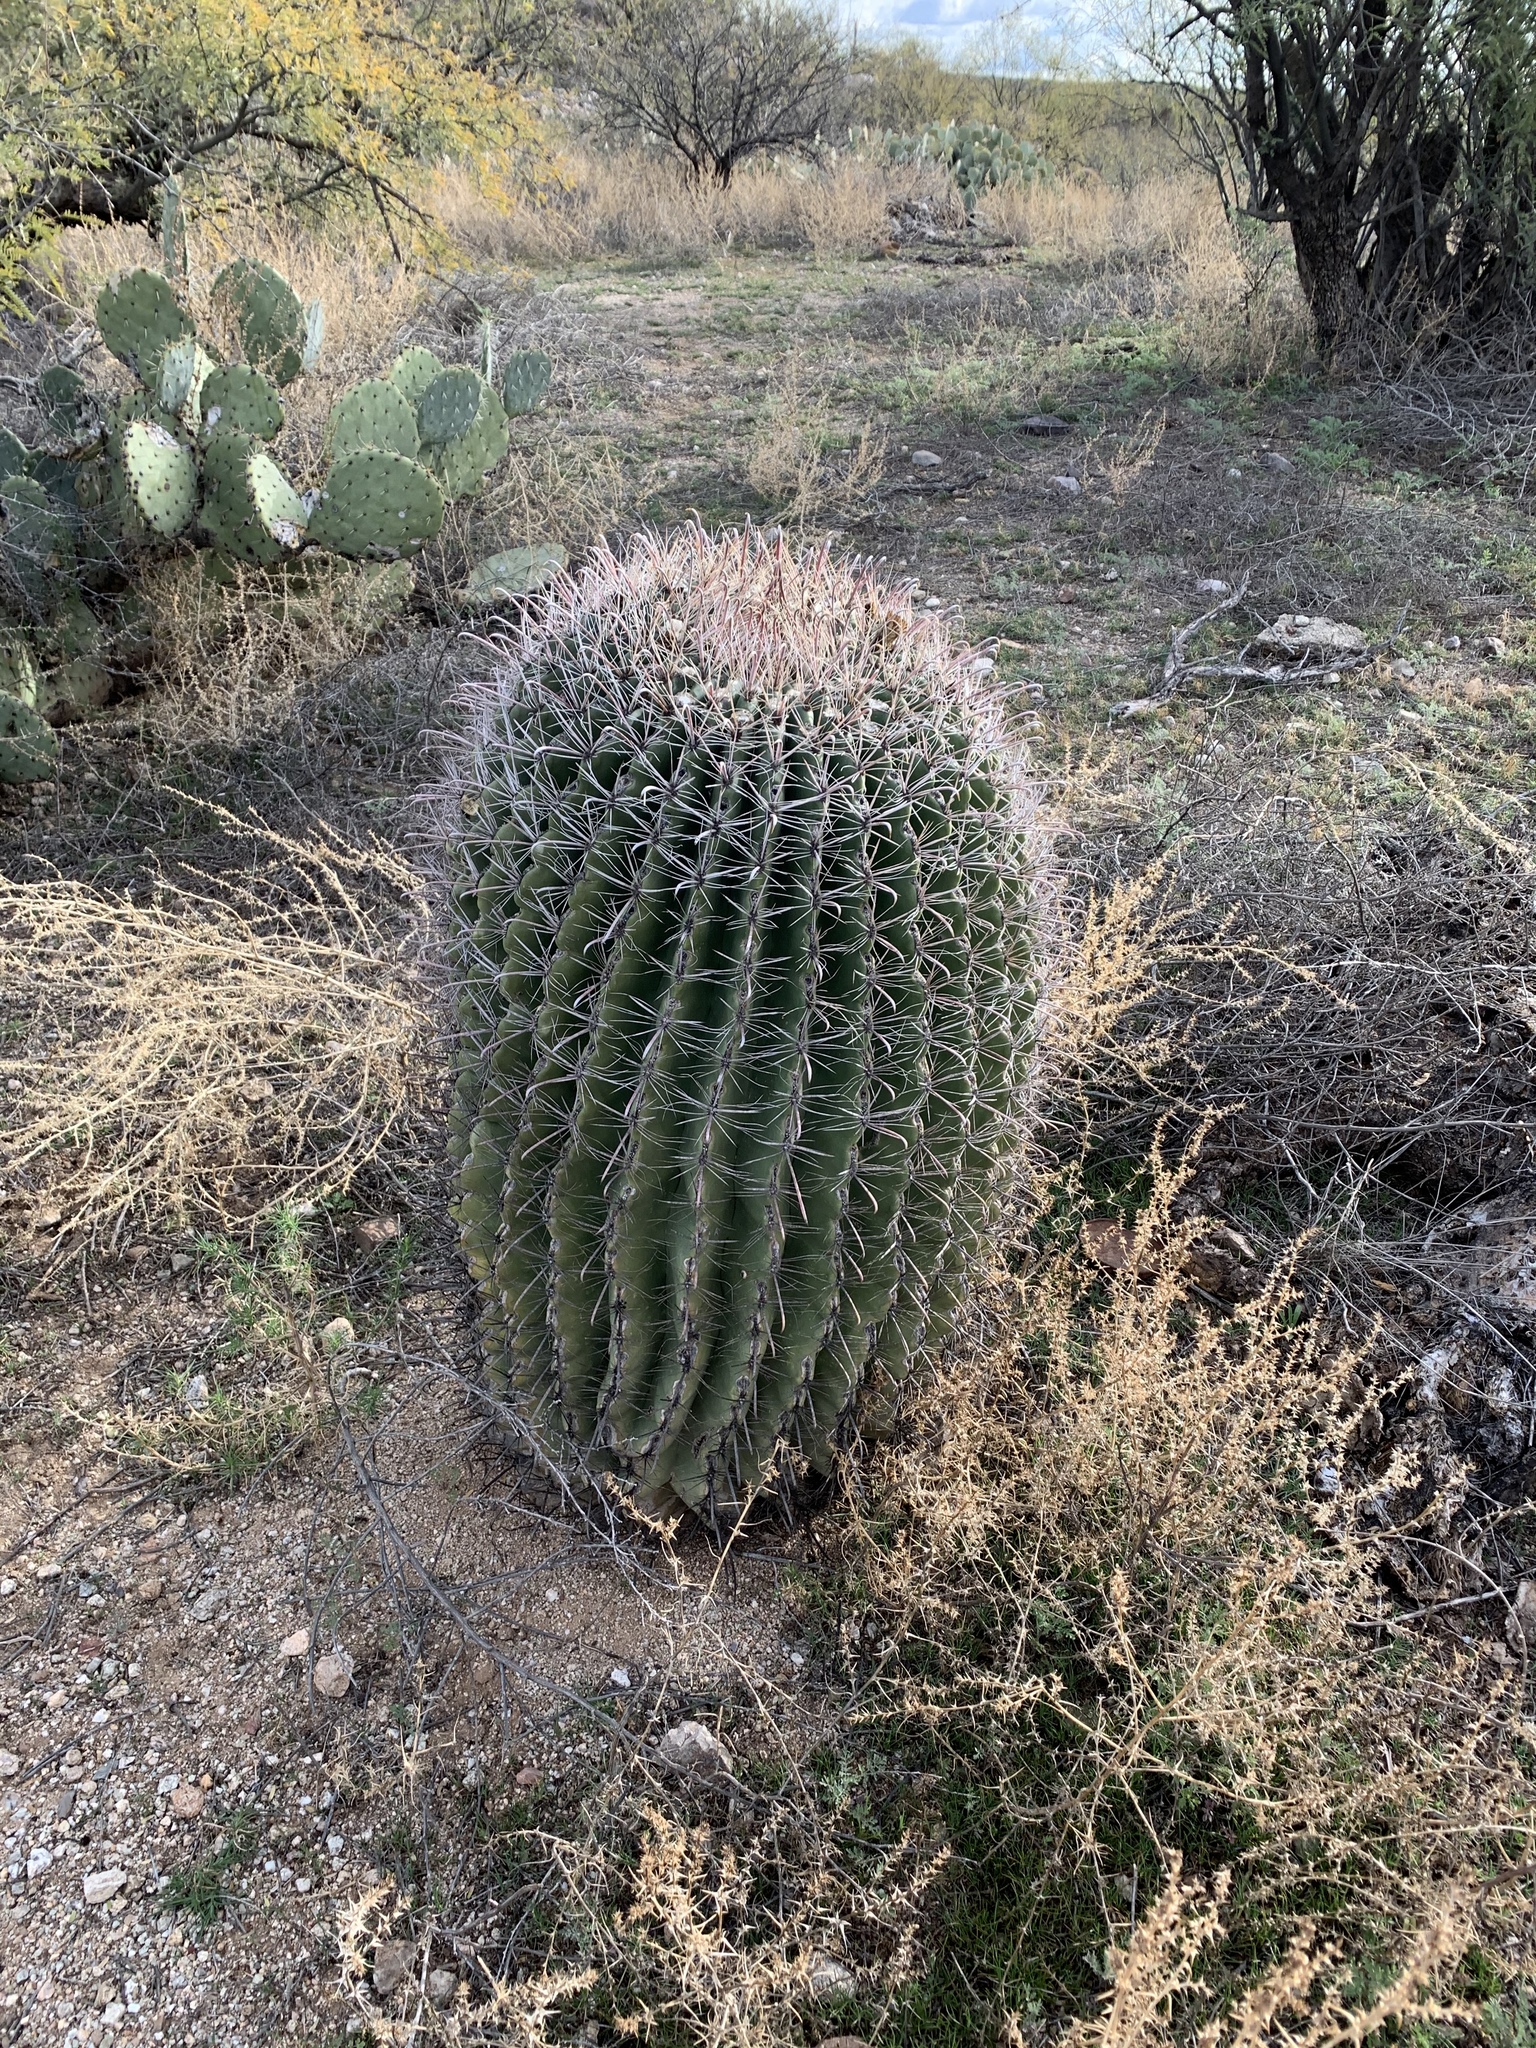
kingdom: Plantae
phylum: Tracheophyta
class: Magnoliopsida
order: Caryophyllales
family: Cactaceae
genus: Ferocactus
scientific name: Ferocactus wislizeni
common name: Candy barrel cactus
